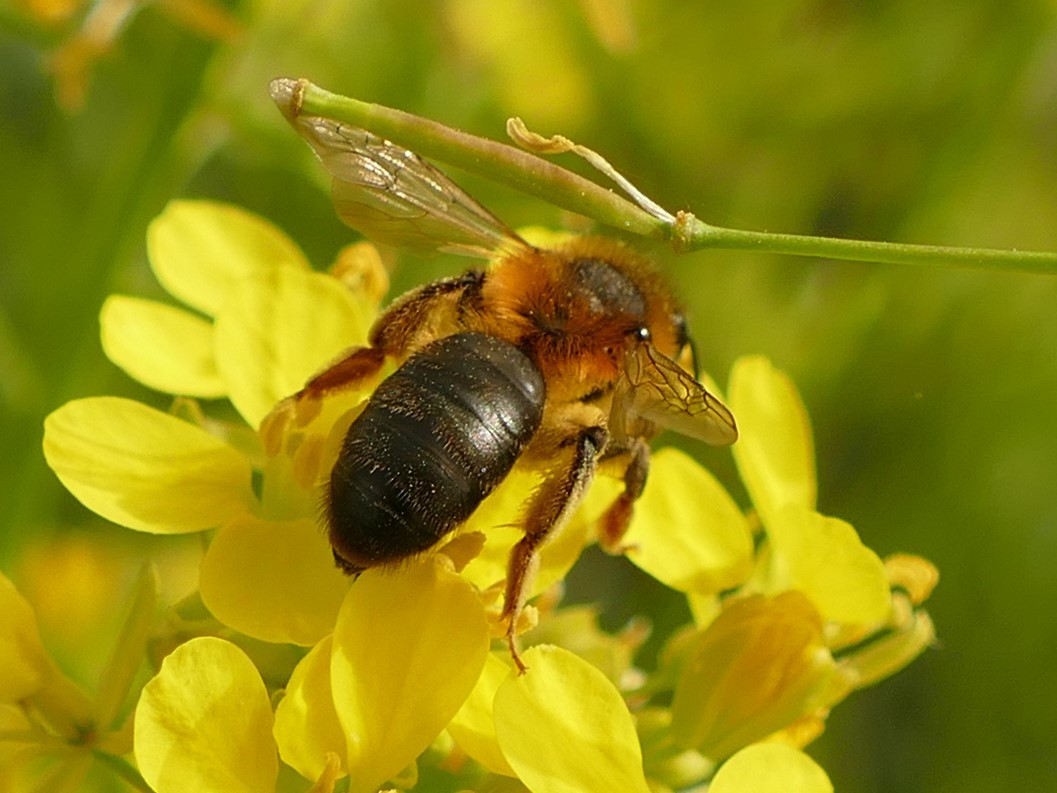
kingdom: Animalia
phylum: Arthropoda
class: Insecta
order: Hymenoptera
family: Andrenidae
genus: Andrena
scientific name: Andrena ferrugineicrus
